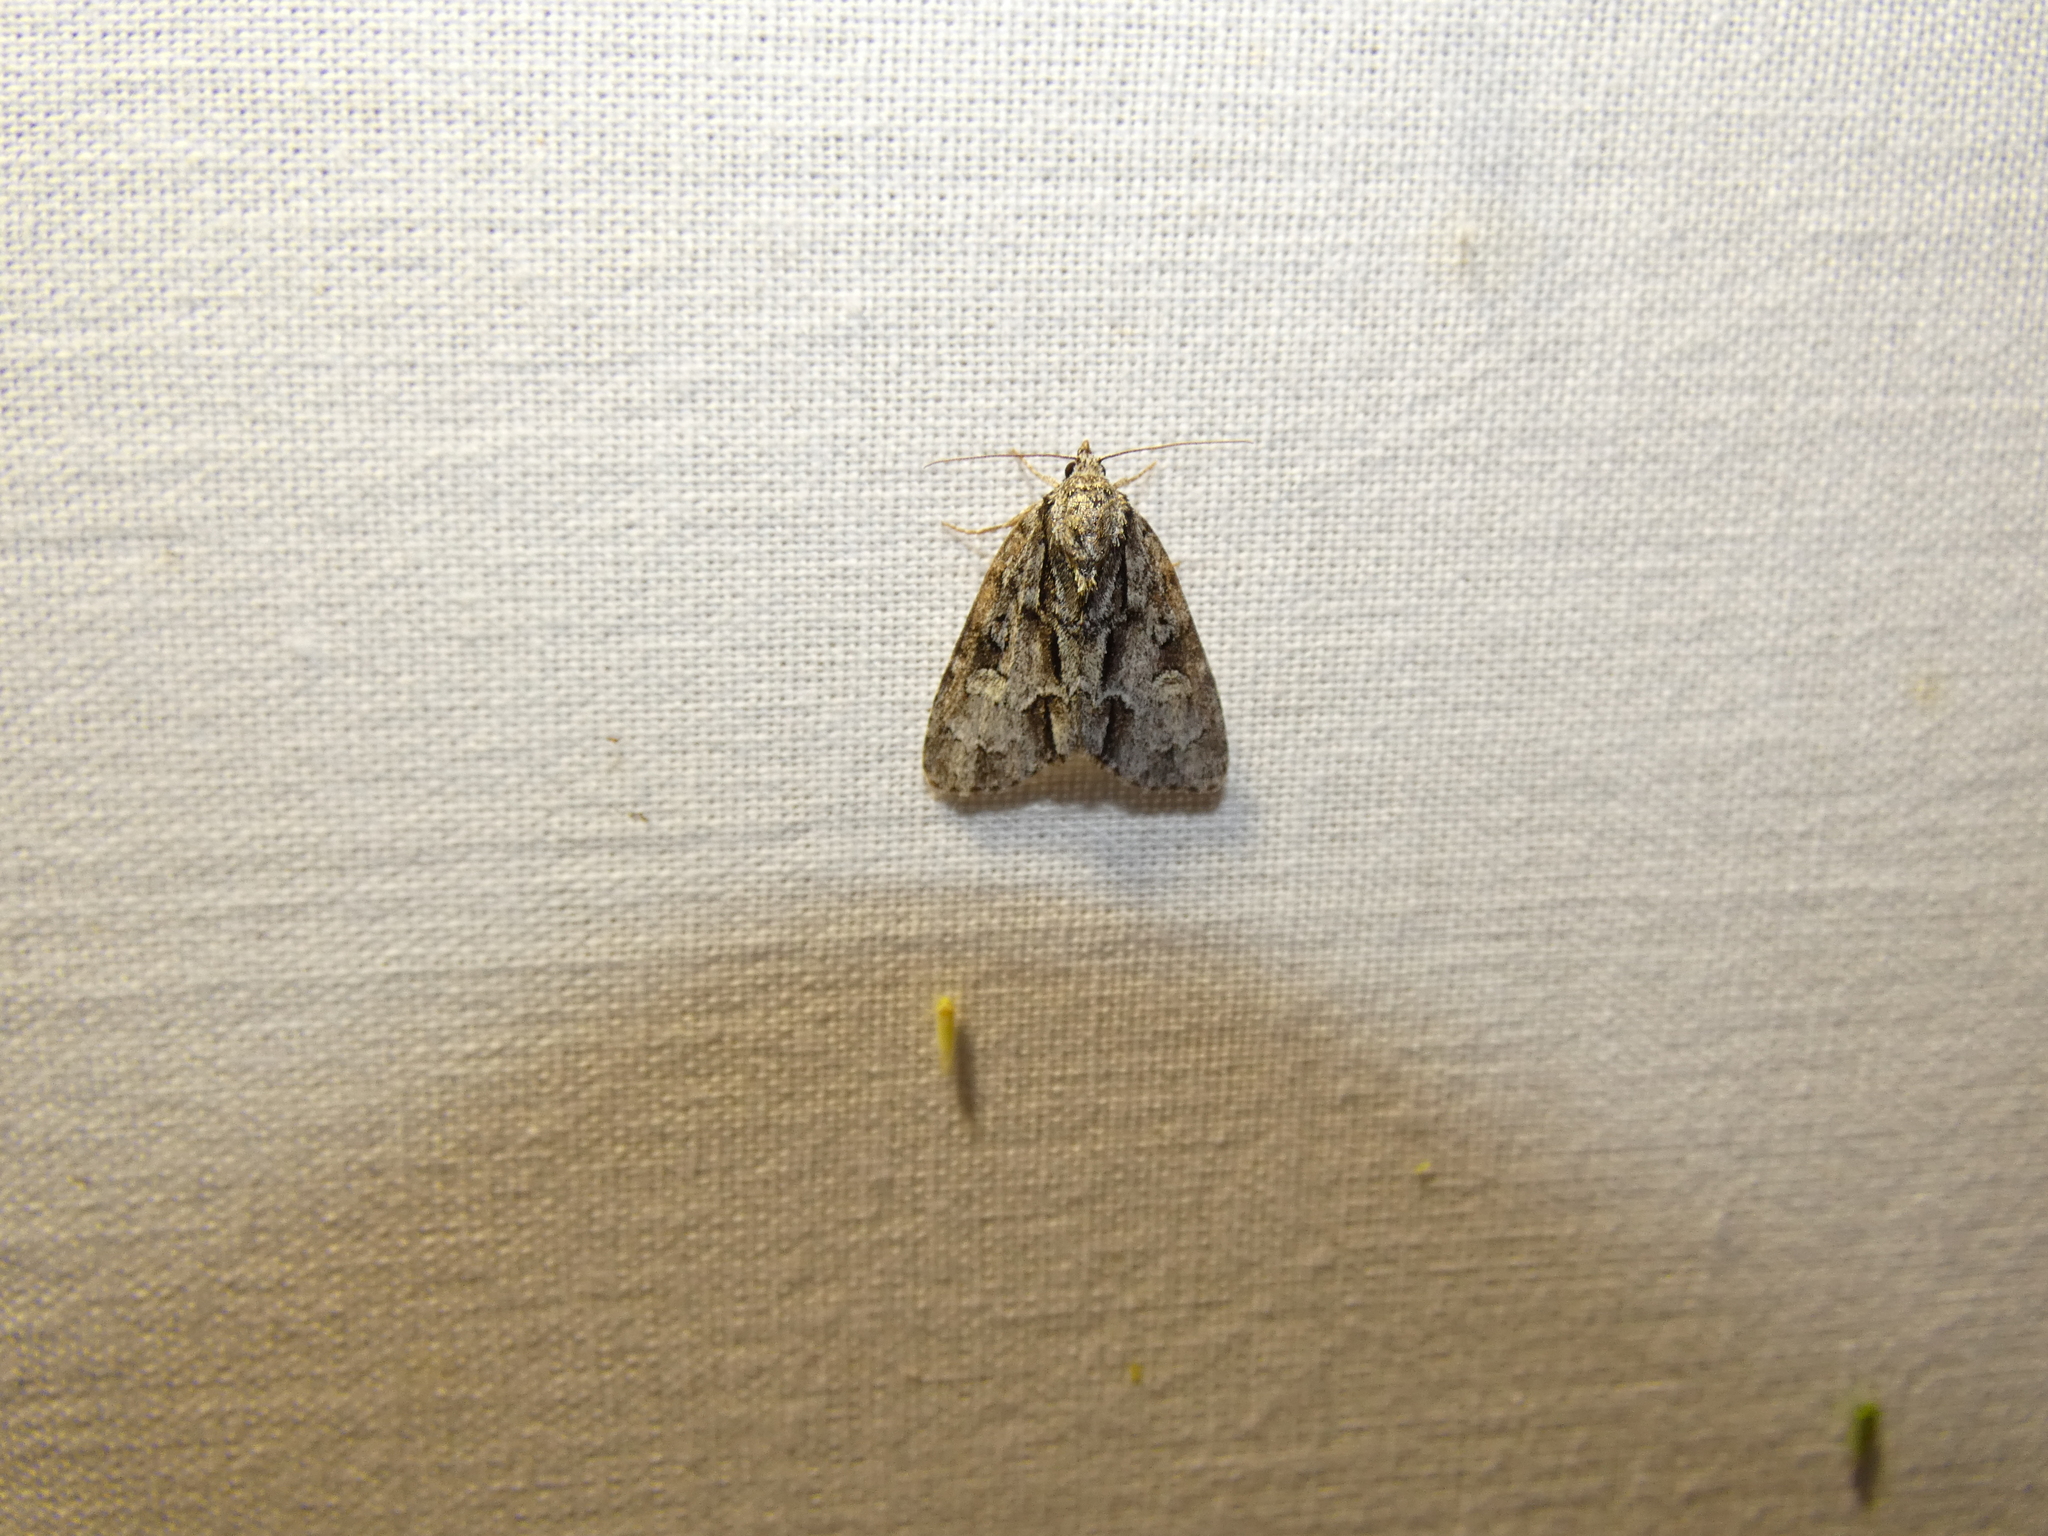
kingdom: Animalia
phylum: Arthropoda
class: Insecta
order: Lepidoptera
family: Noctuidae
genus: Acronicta
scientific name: Acronicta strigosa
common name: Marsh dagger
